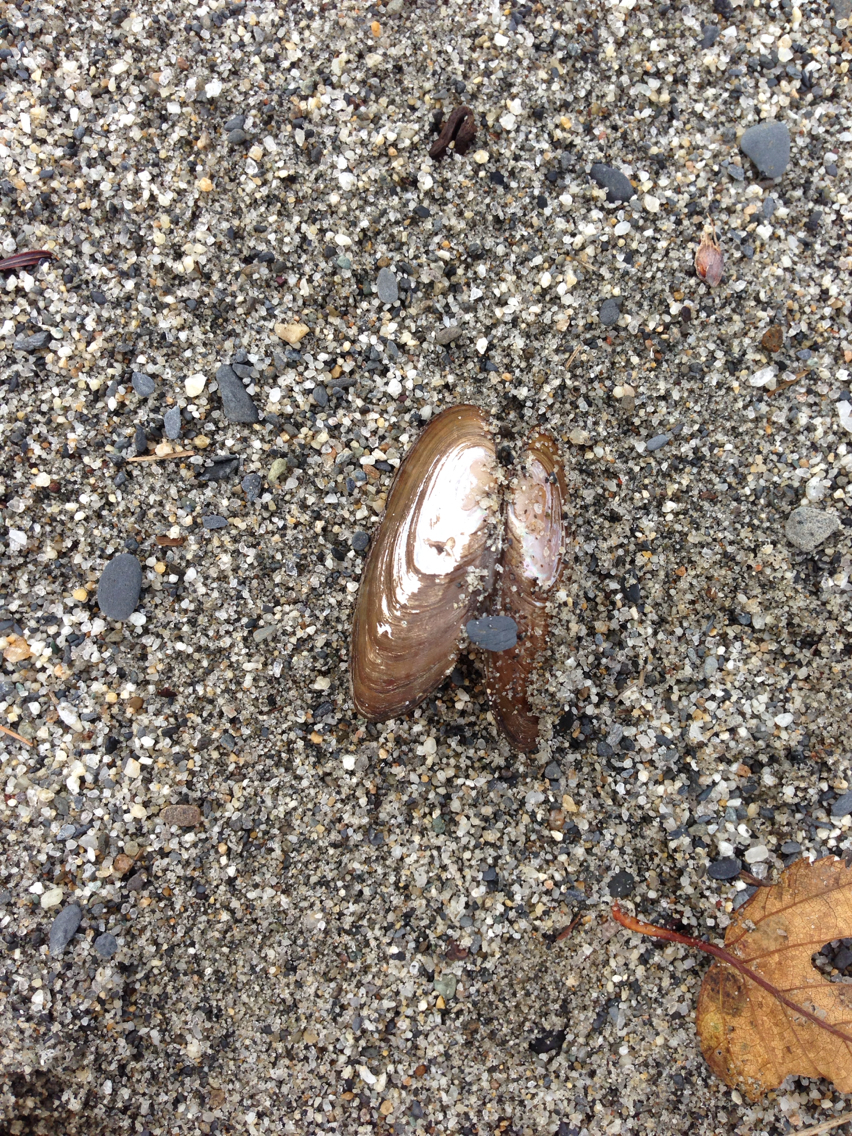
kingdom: Animalia
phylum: Mollusca
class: Bivalvia
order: Unionida
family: Unionidae
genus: Elliptio
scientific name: Elliptio complanata
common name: Eastern elliptio
